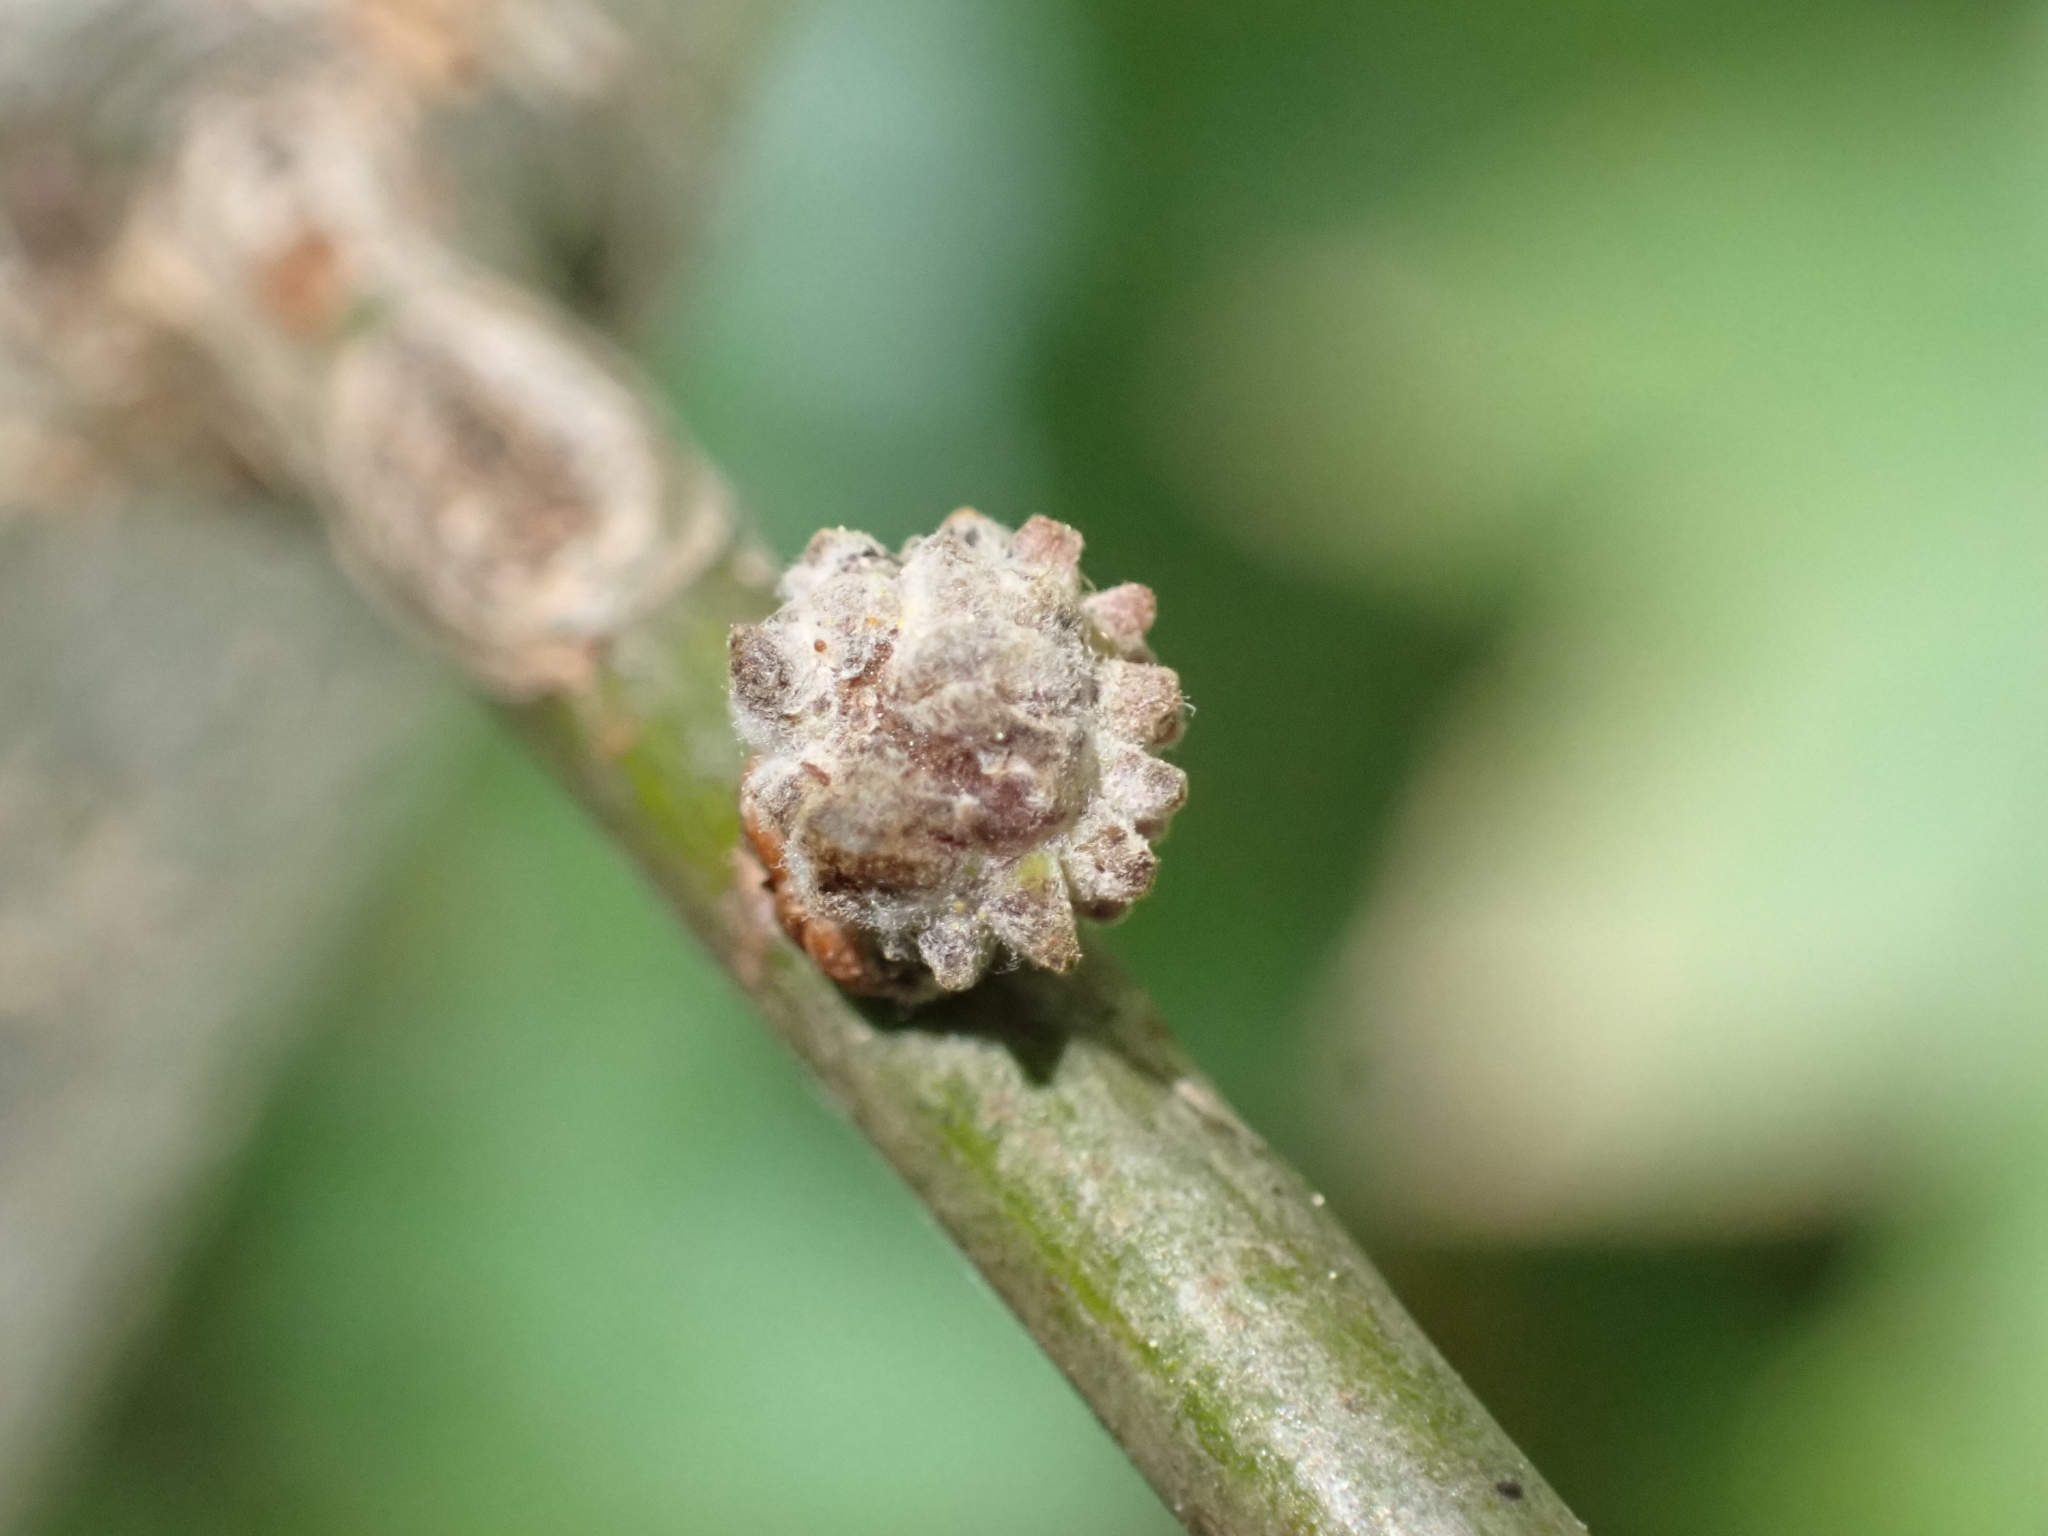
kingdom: Animalia
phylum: Arthropoda
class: Insecta
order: Hymenoptera
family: Cynipidae
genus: Andricus
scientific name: Andricus gemmeus
